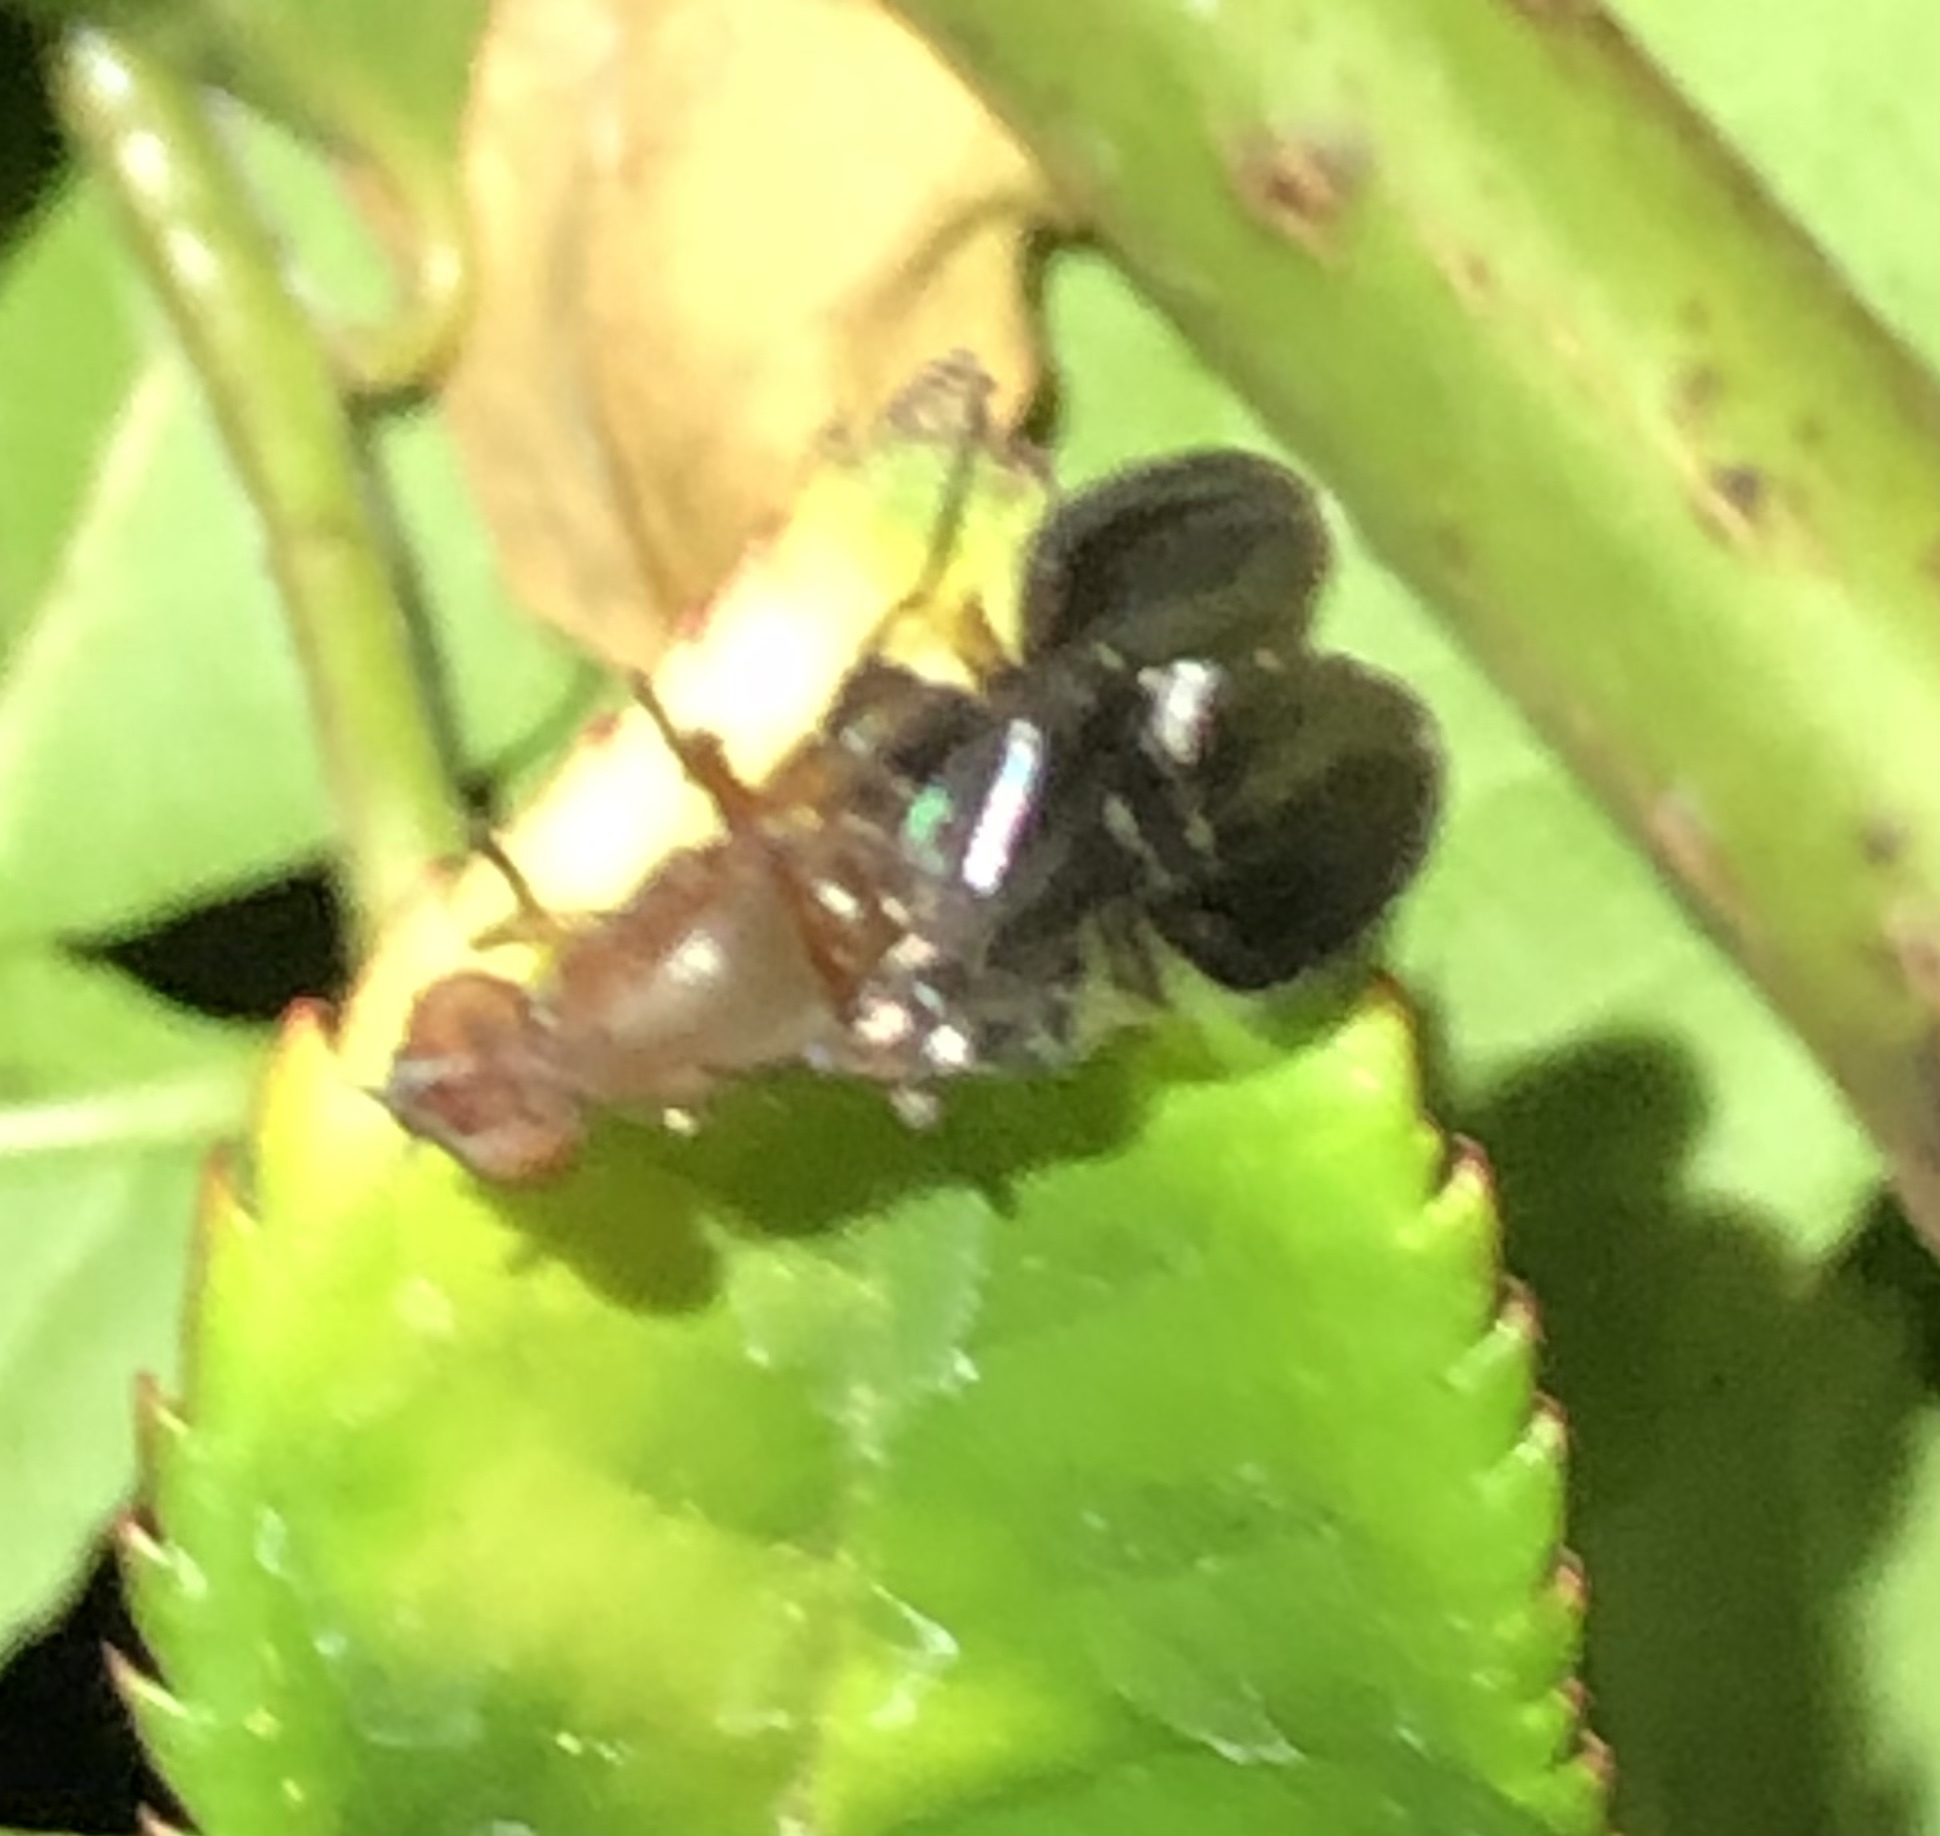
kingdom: Animalia
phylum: Arthropoda
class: Insecta
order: Diptera
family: Ulidiidae
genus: Delphinia
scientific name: Delphinia picta
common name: Common picture-winged fly
